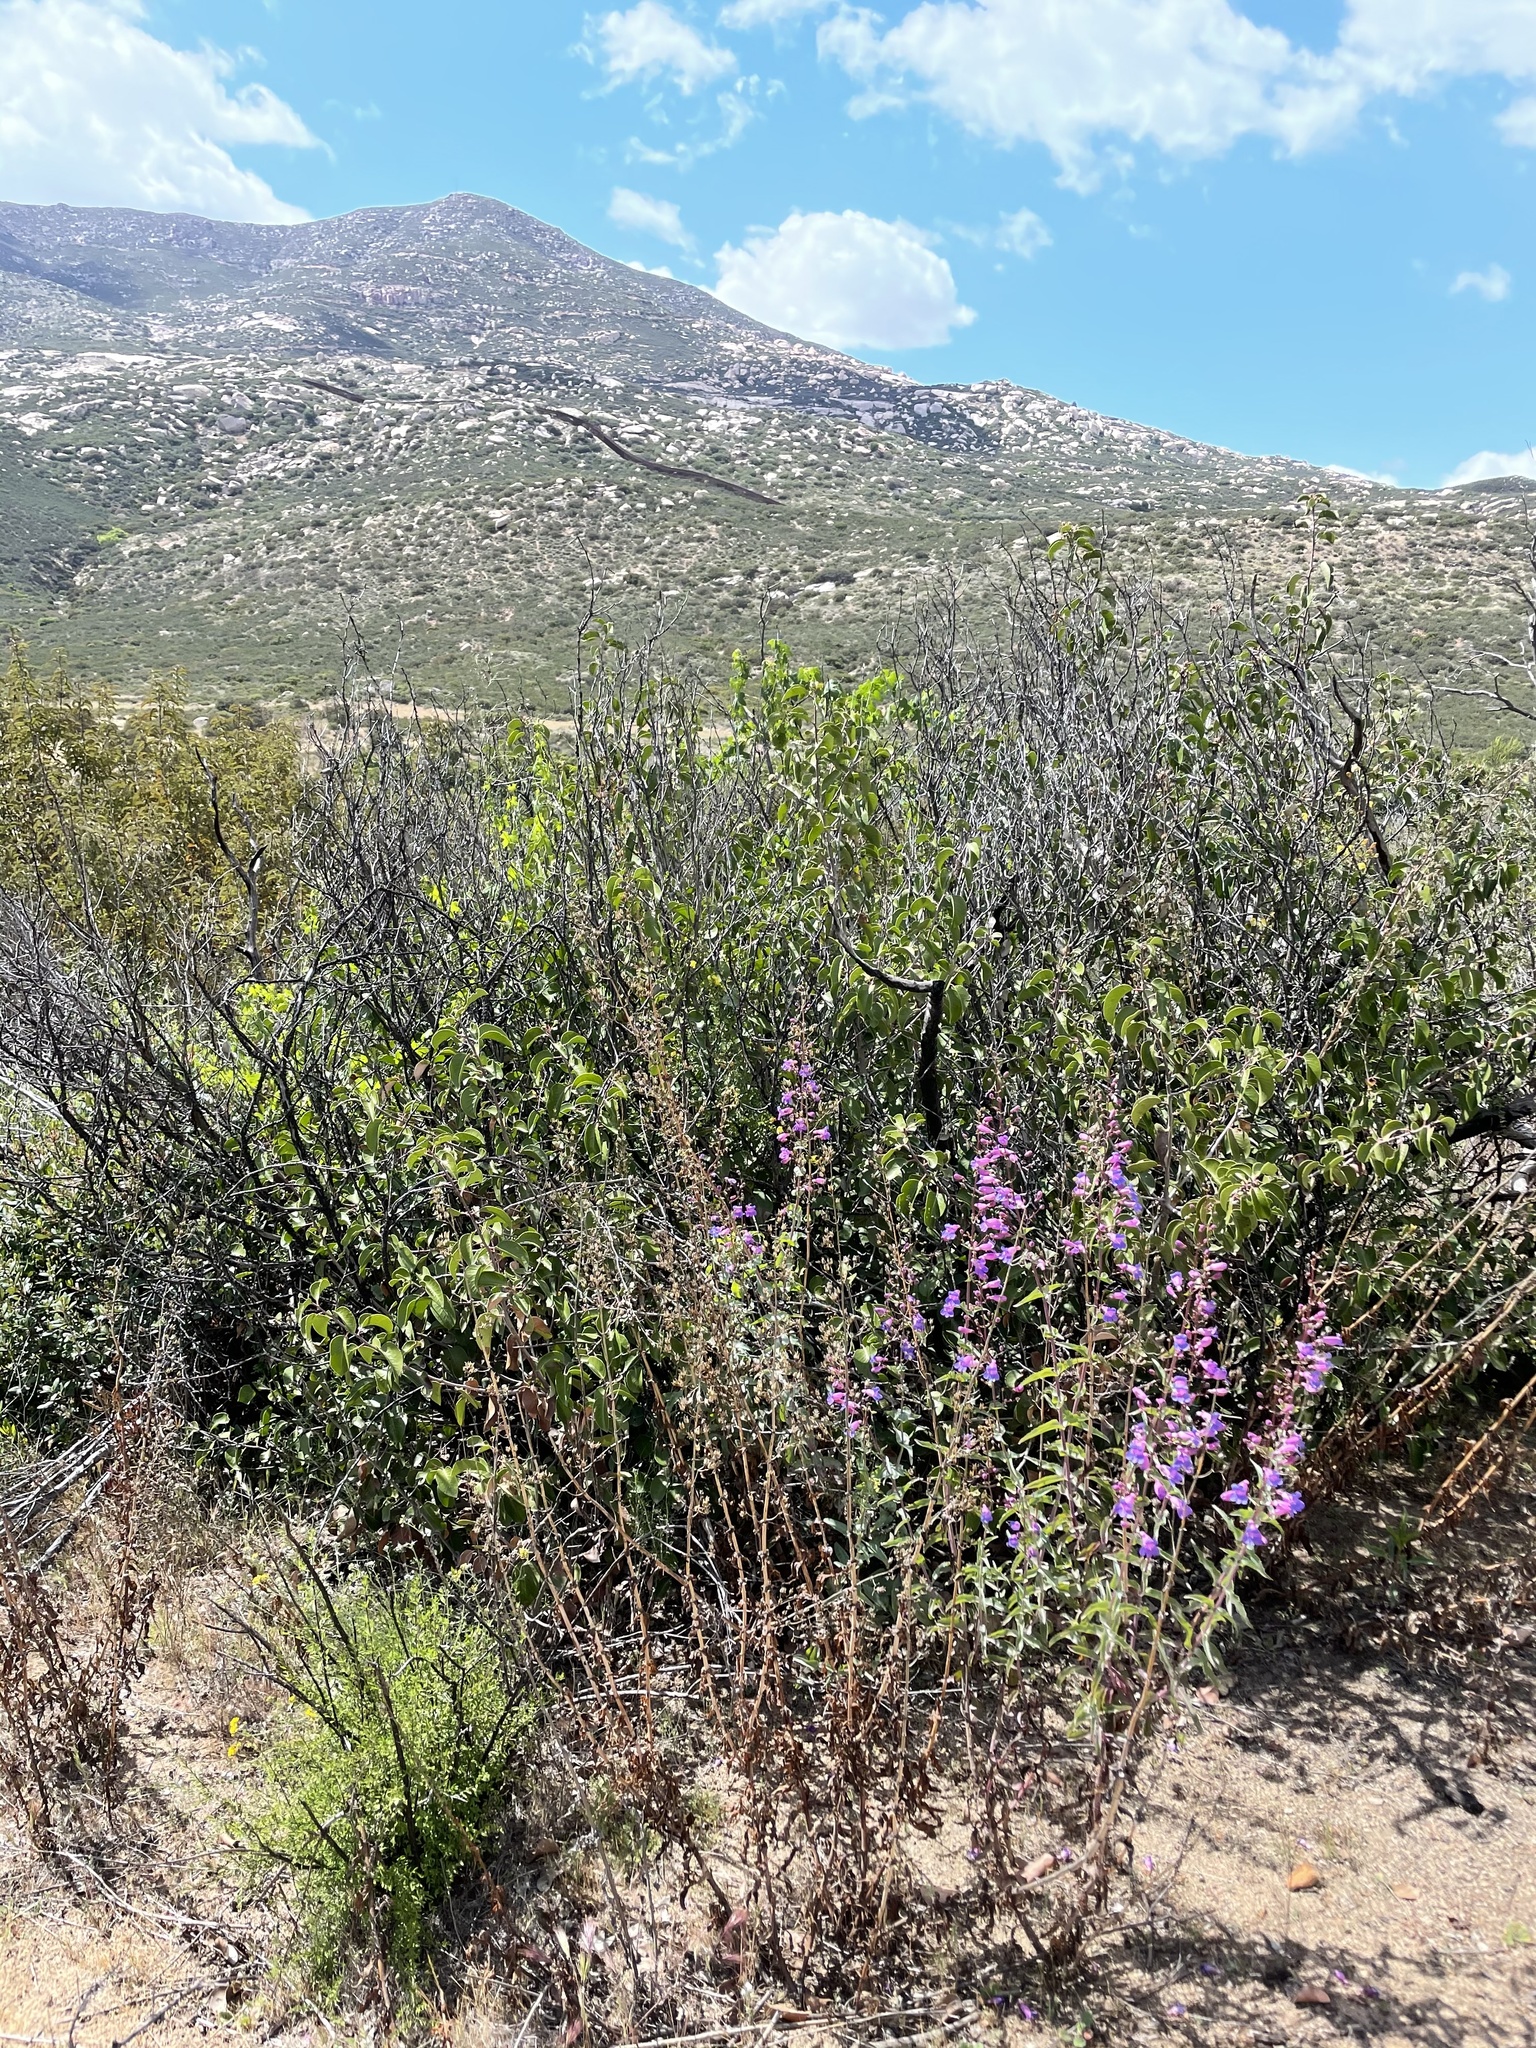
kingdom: Plantae
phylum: Tracheophyta
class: Magnoliopsida
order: Lamiales
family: Lamiaceae
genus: Trichostema
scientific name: Trichostema parishii
